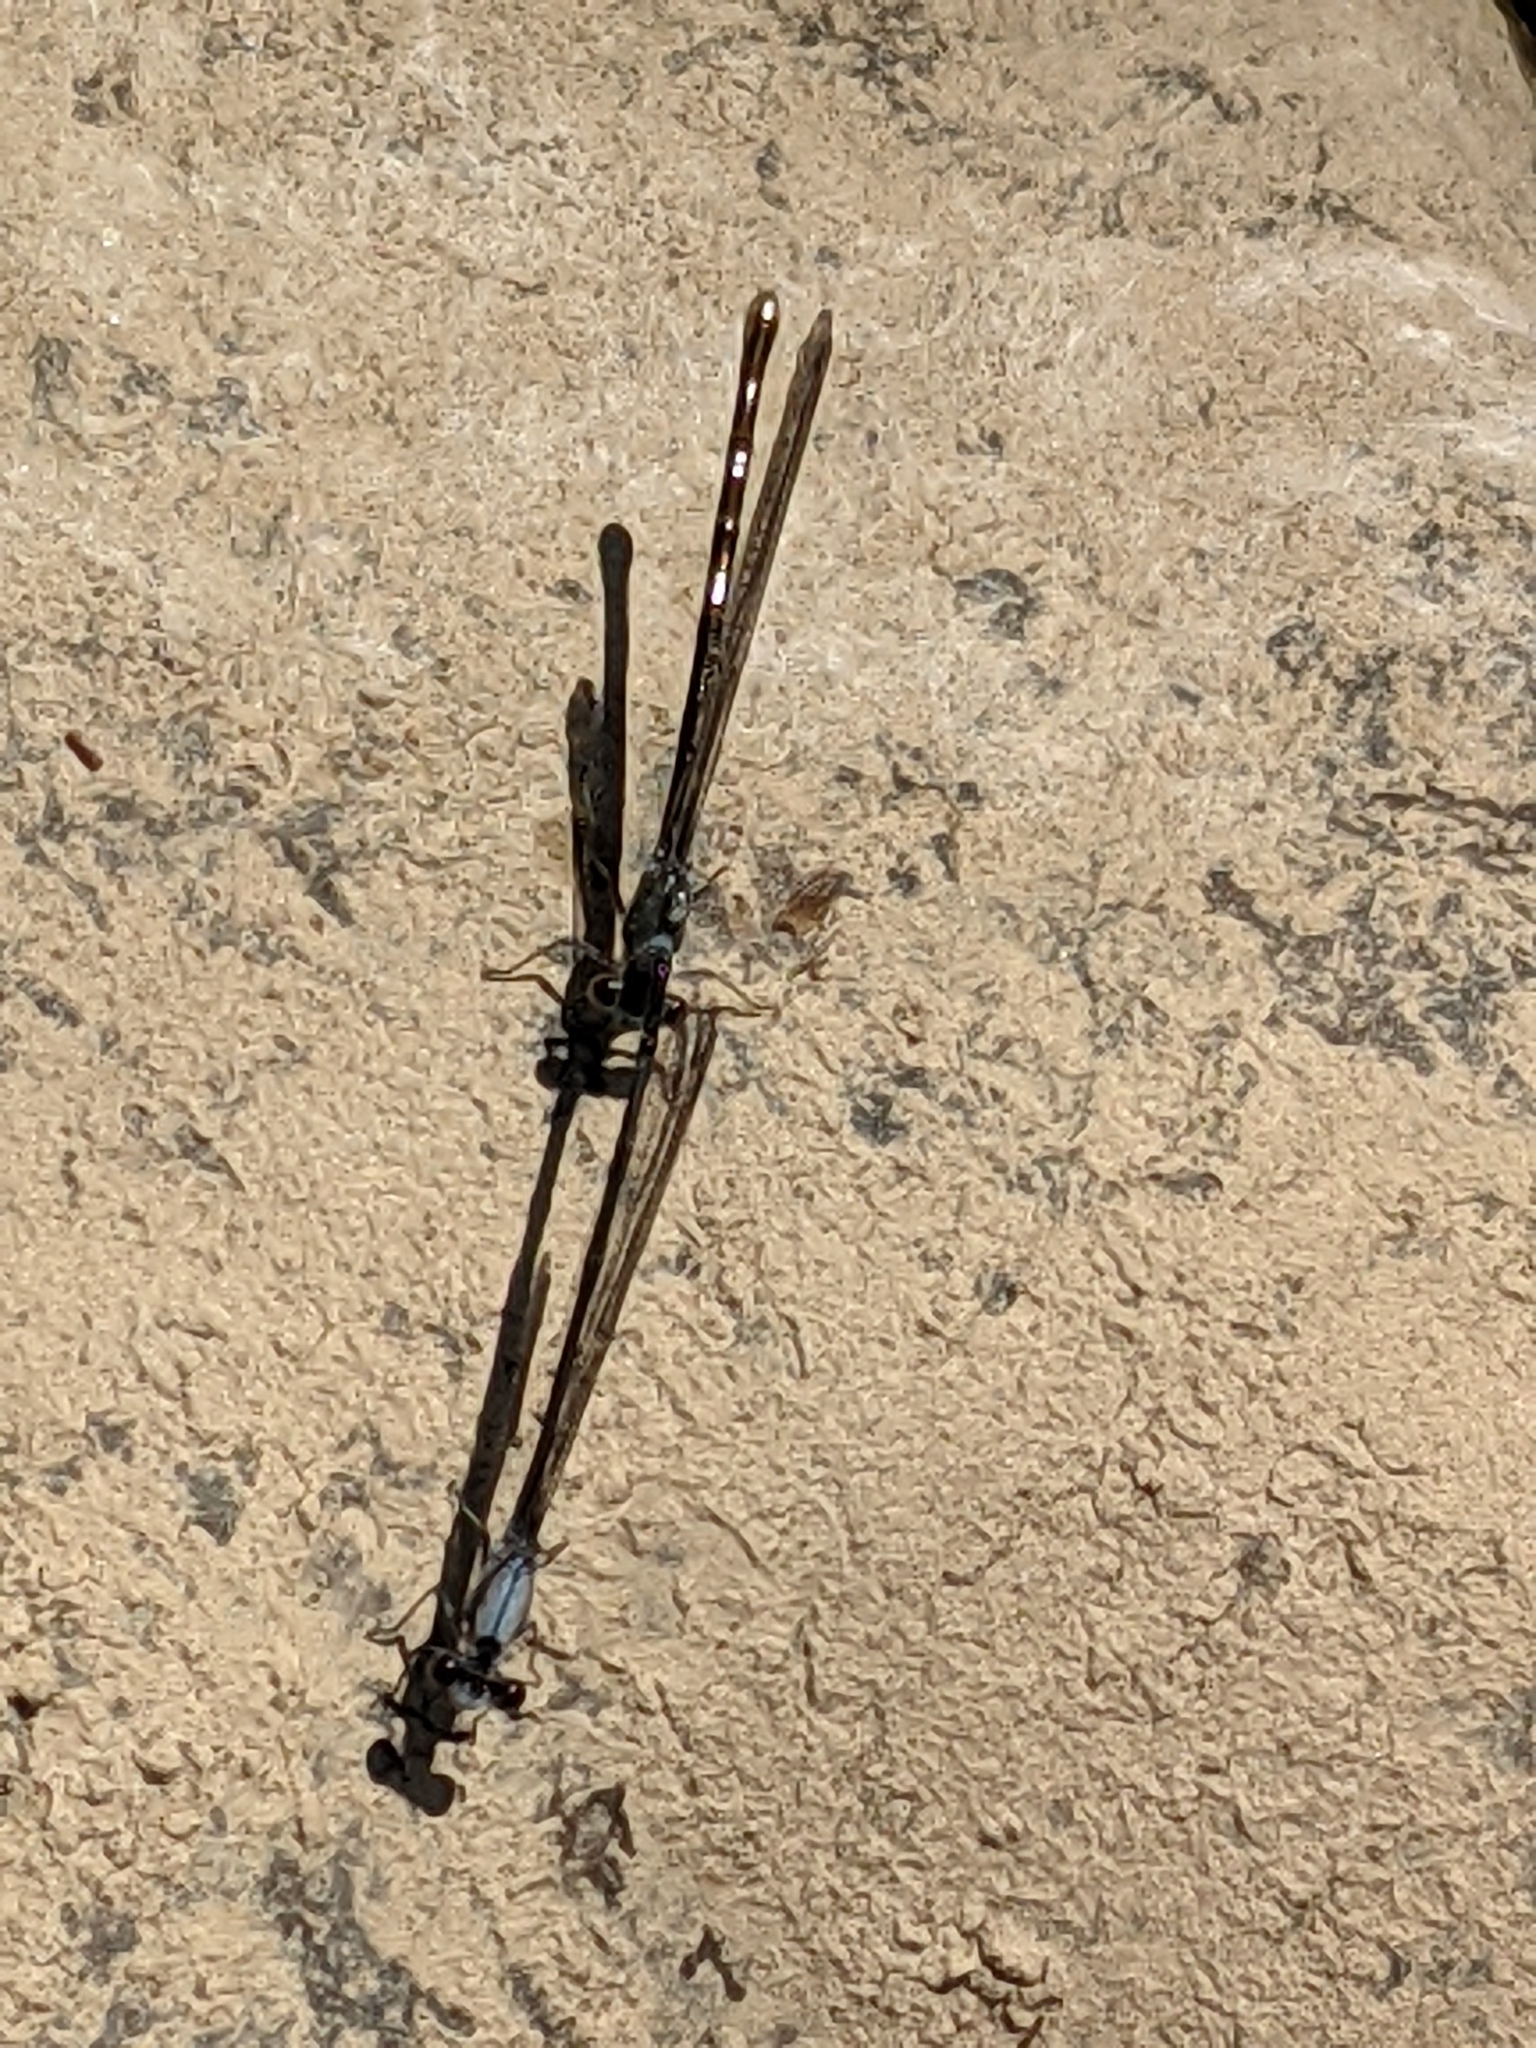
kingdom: Animalia
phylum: Arthropoda
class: Insecta
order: Odonata
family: Coenagrionidae
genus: Argia
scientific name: Argia moesta
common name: Powdered dancer
